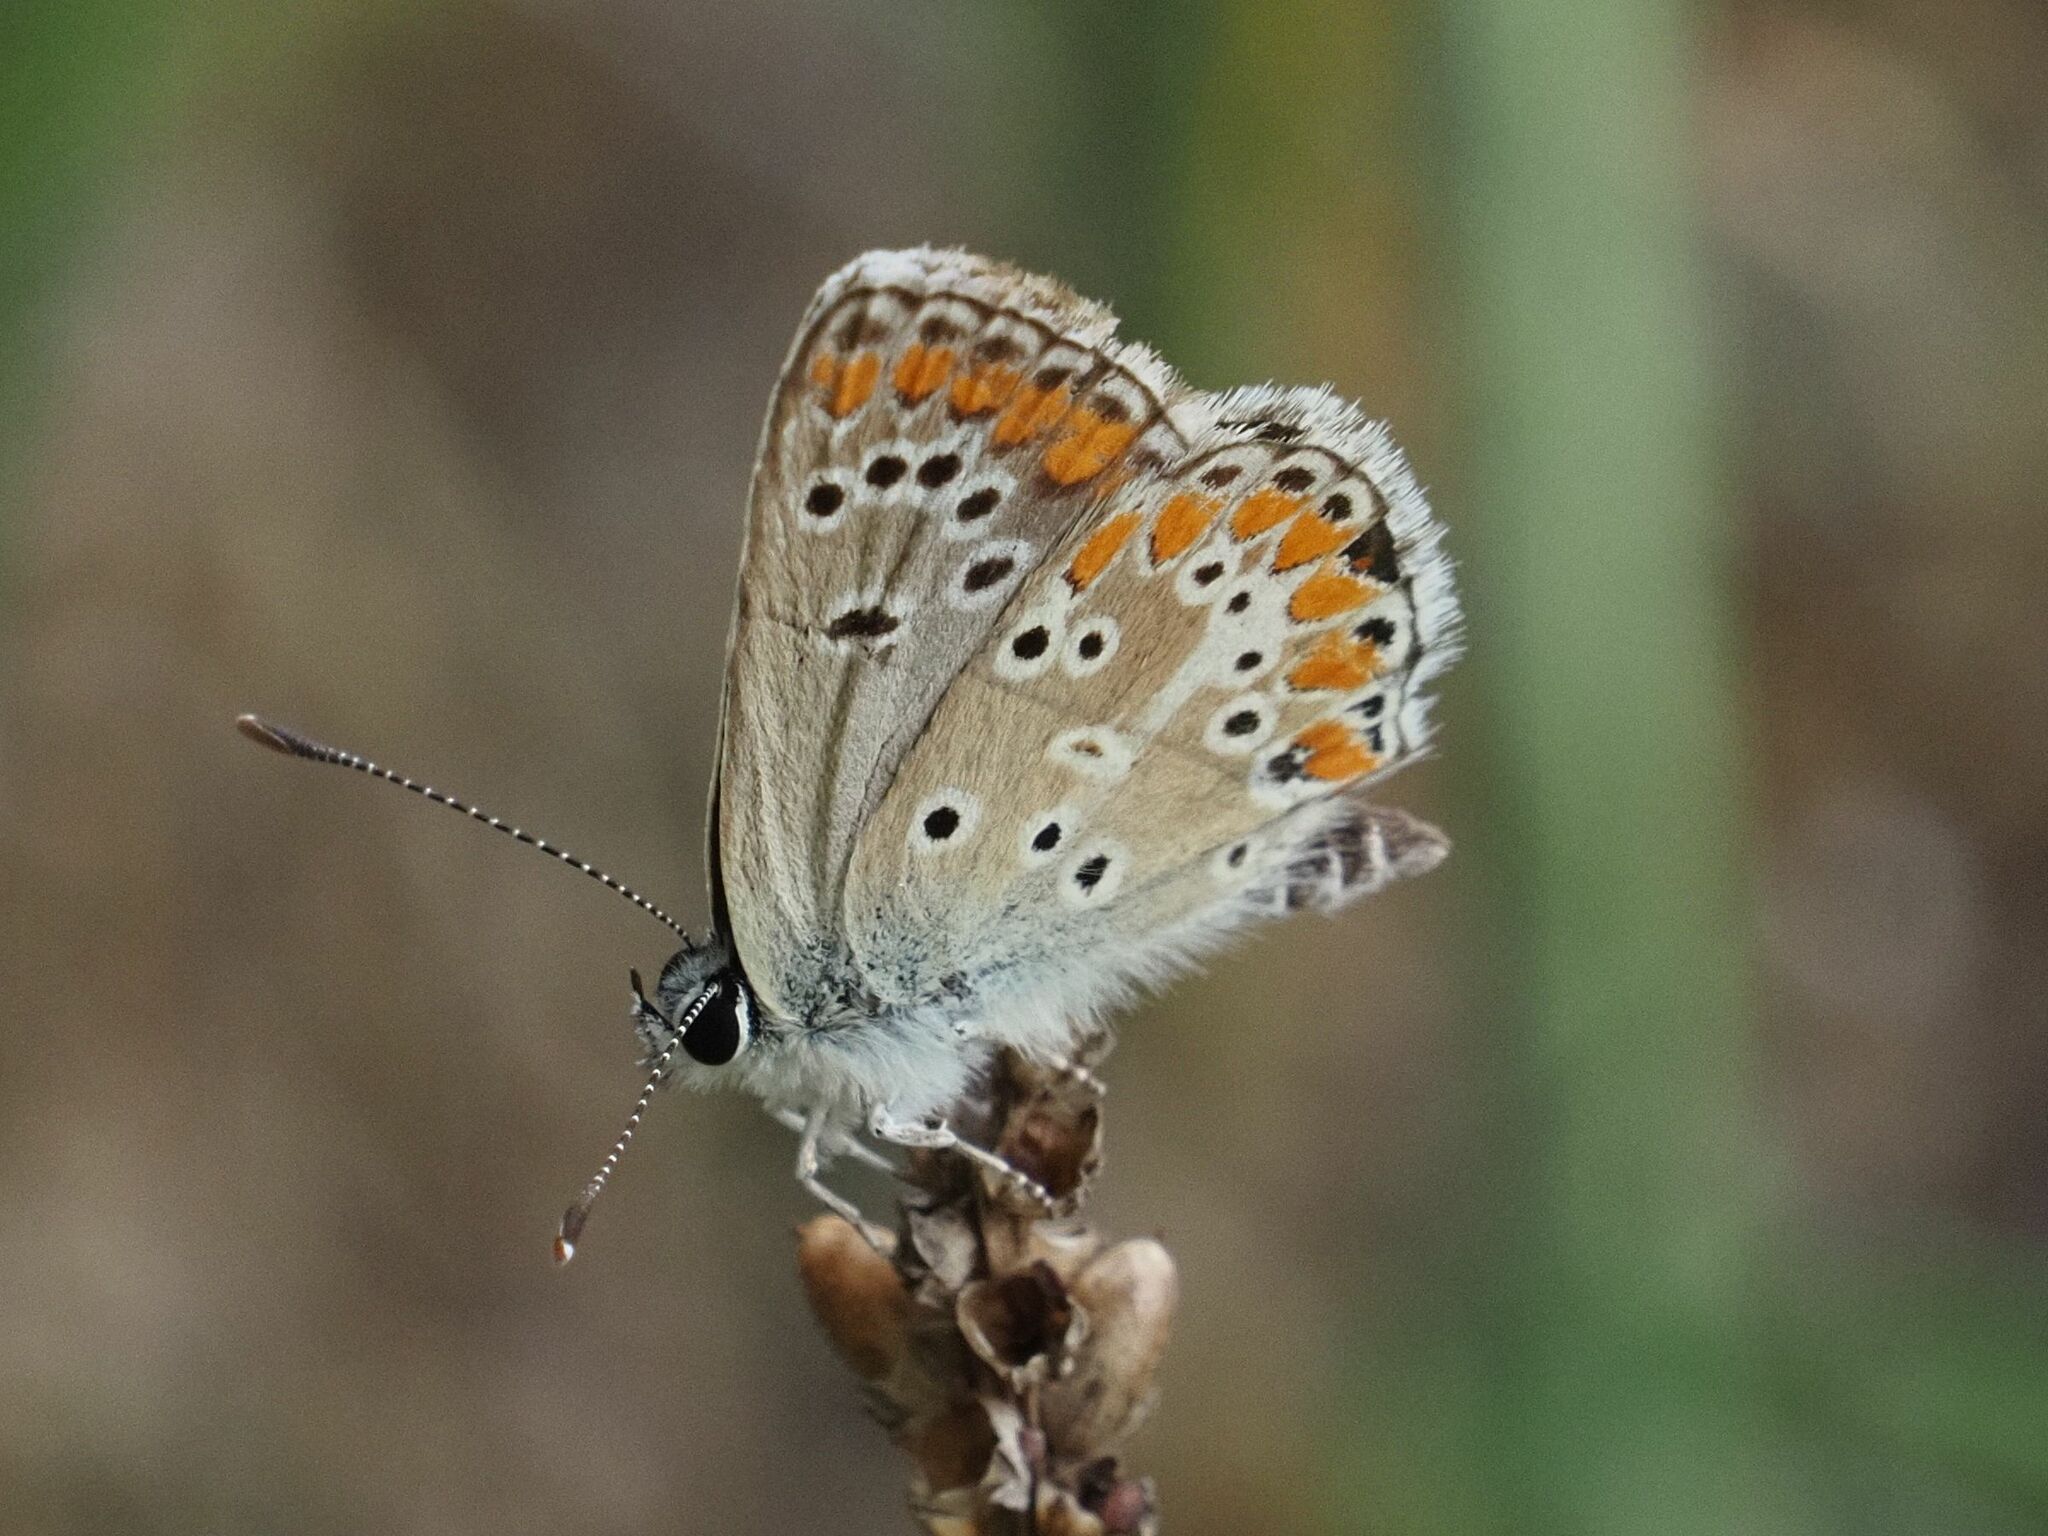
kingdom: Animalia
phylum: Arthropoda
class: Insecta
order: Lepidoptera
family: Lycaenidae
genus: Aricia
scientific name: Aricia agestis
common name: Brown argus
